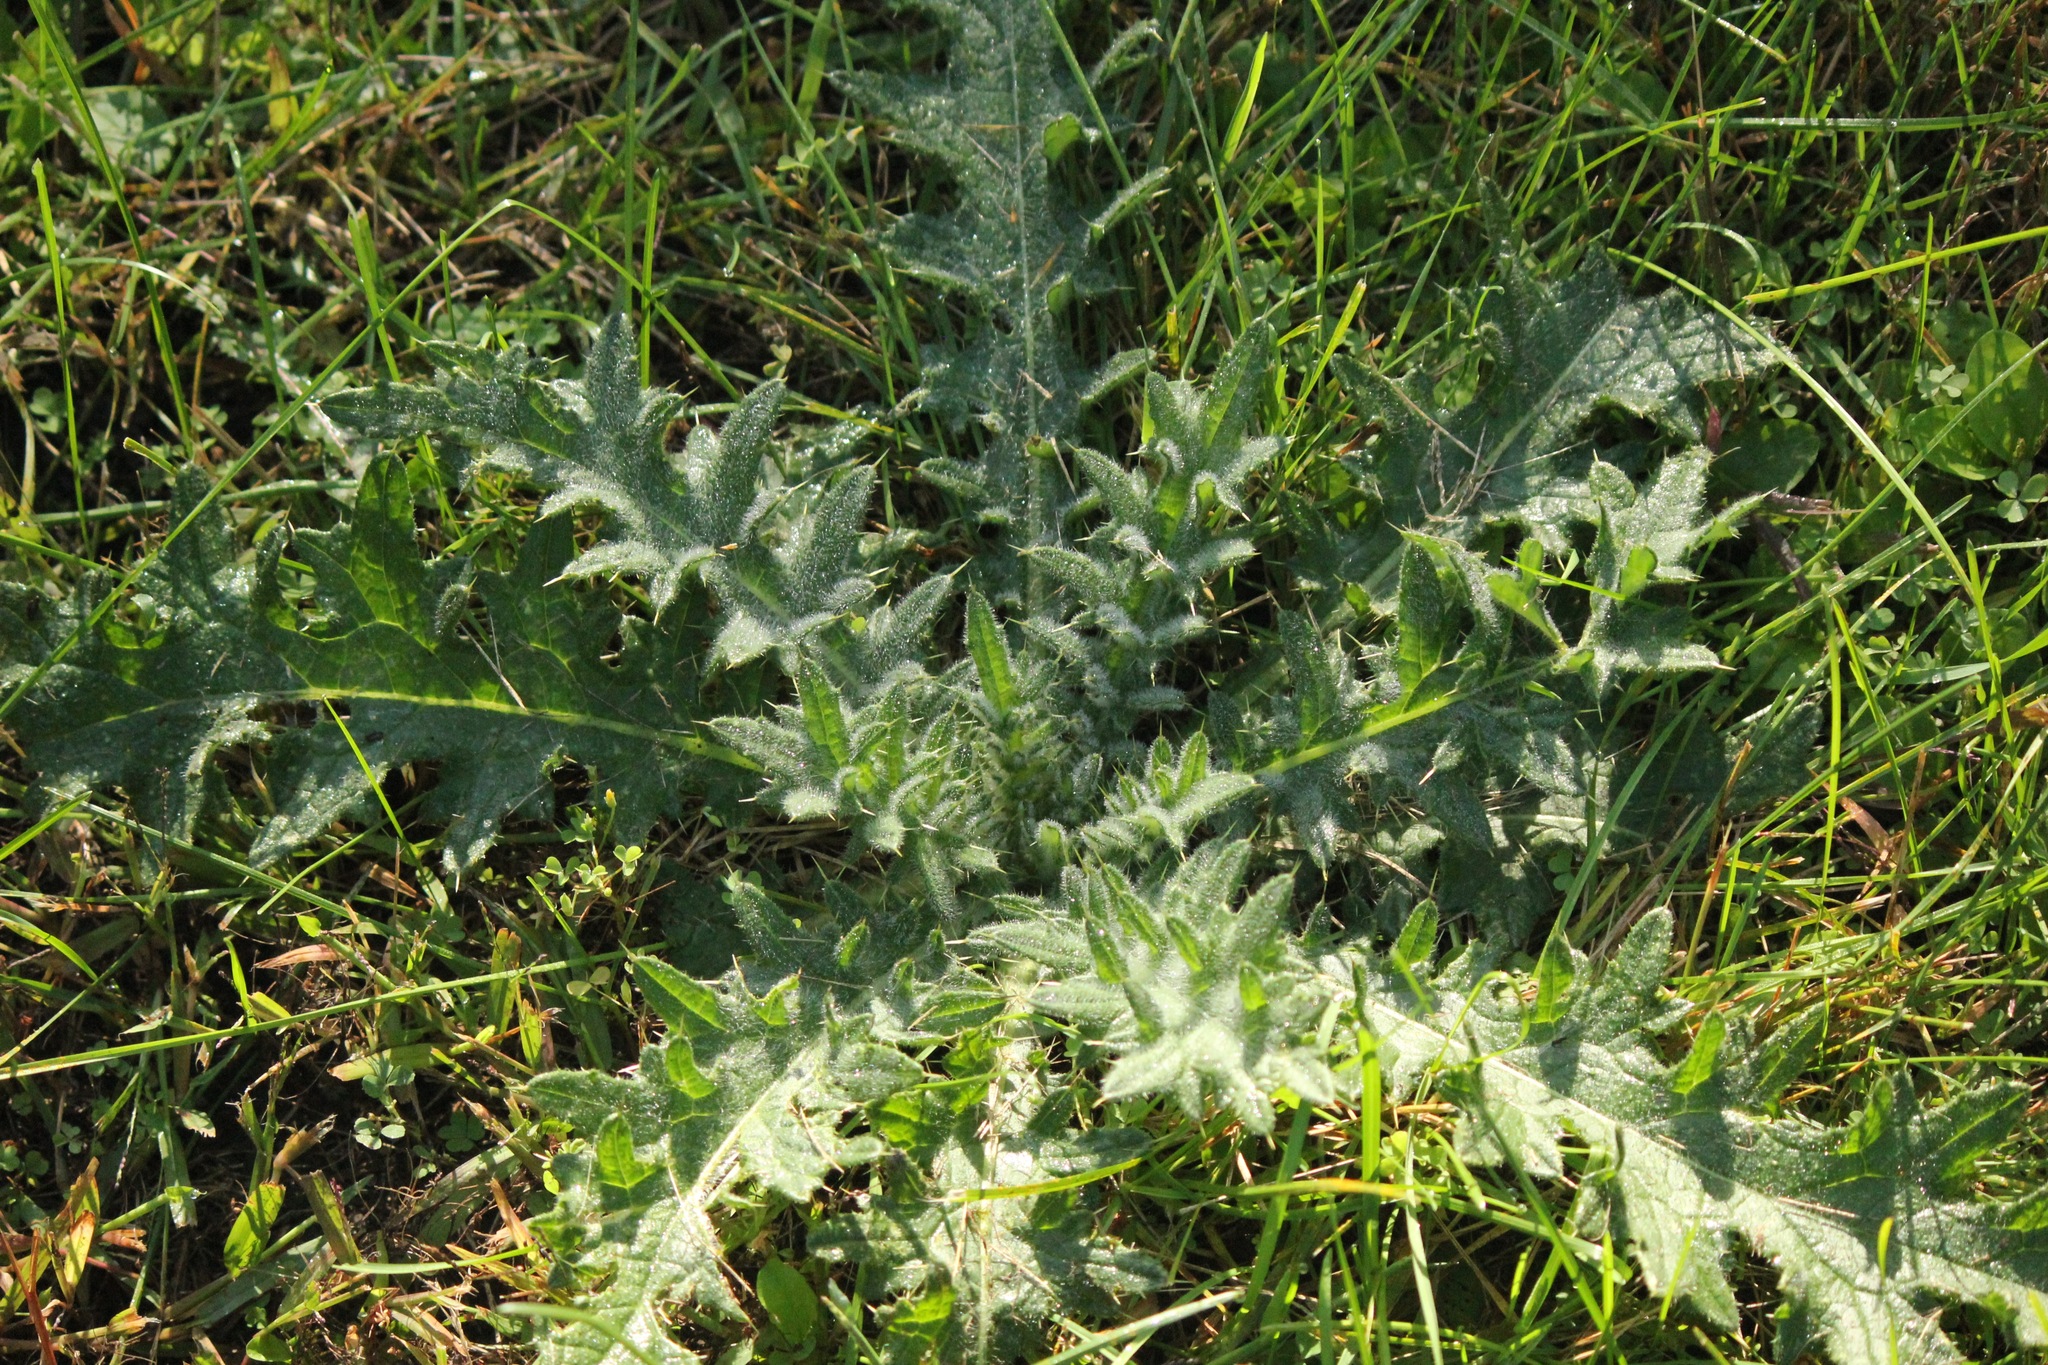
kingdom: Plantae
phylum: Tracheophyta
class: Magnoliopsida
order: Asterales
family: Asteraceae
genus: Cirsium
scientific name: Cirsium vulgare
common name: Bull thistle
